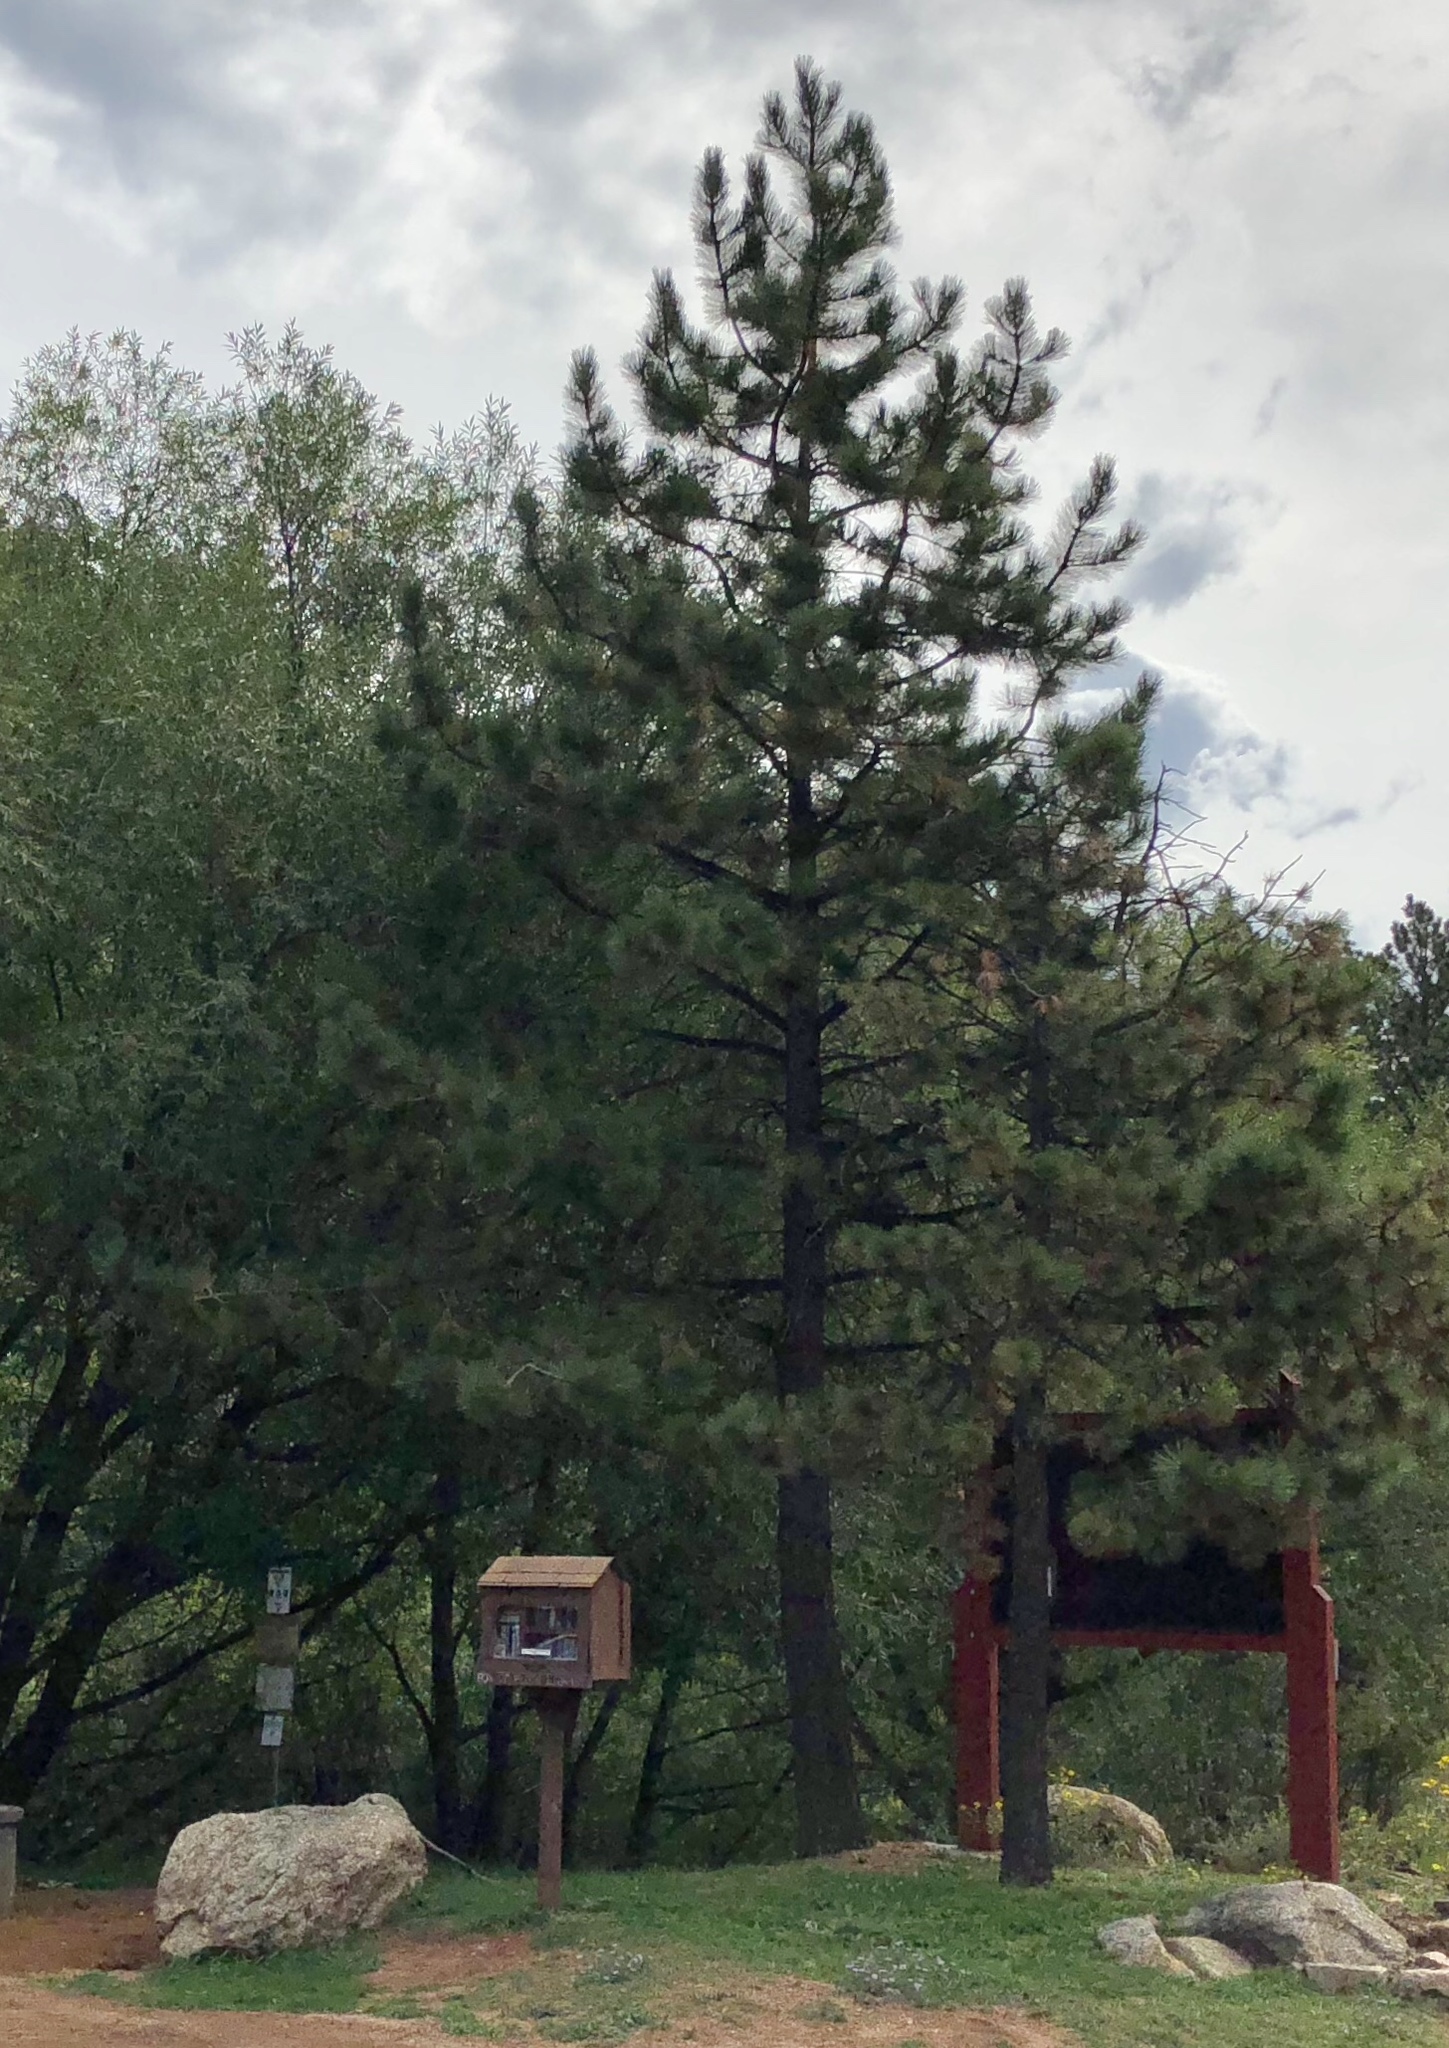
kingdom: Plantae
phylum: Tracheophyta
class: Pinopsida
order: Pinales
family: Pinaceae
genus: Pinus
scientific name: Pinus ponderosa
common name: Western yellow-pine
